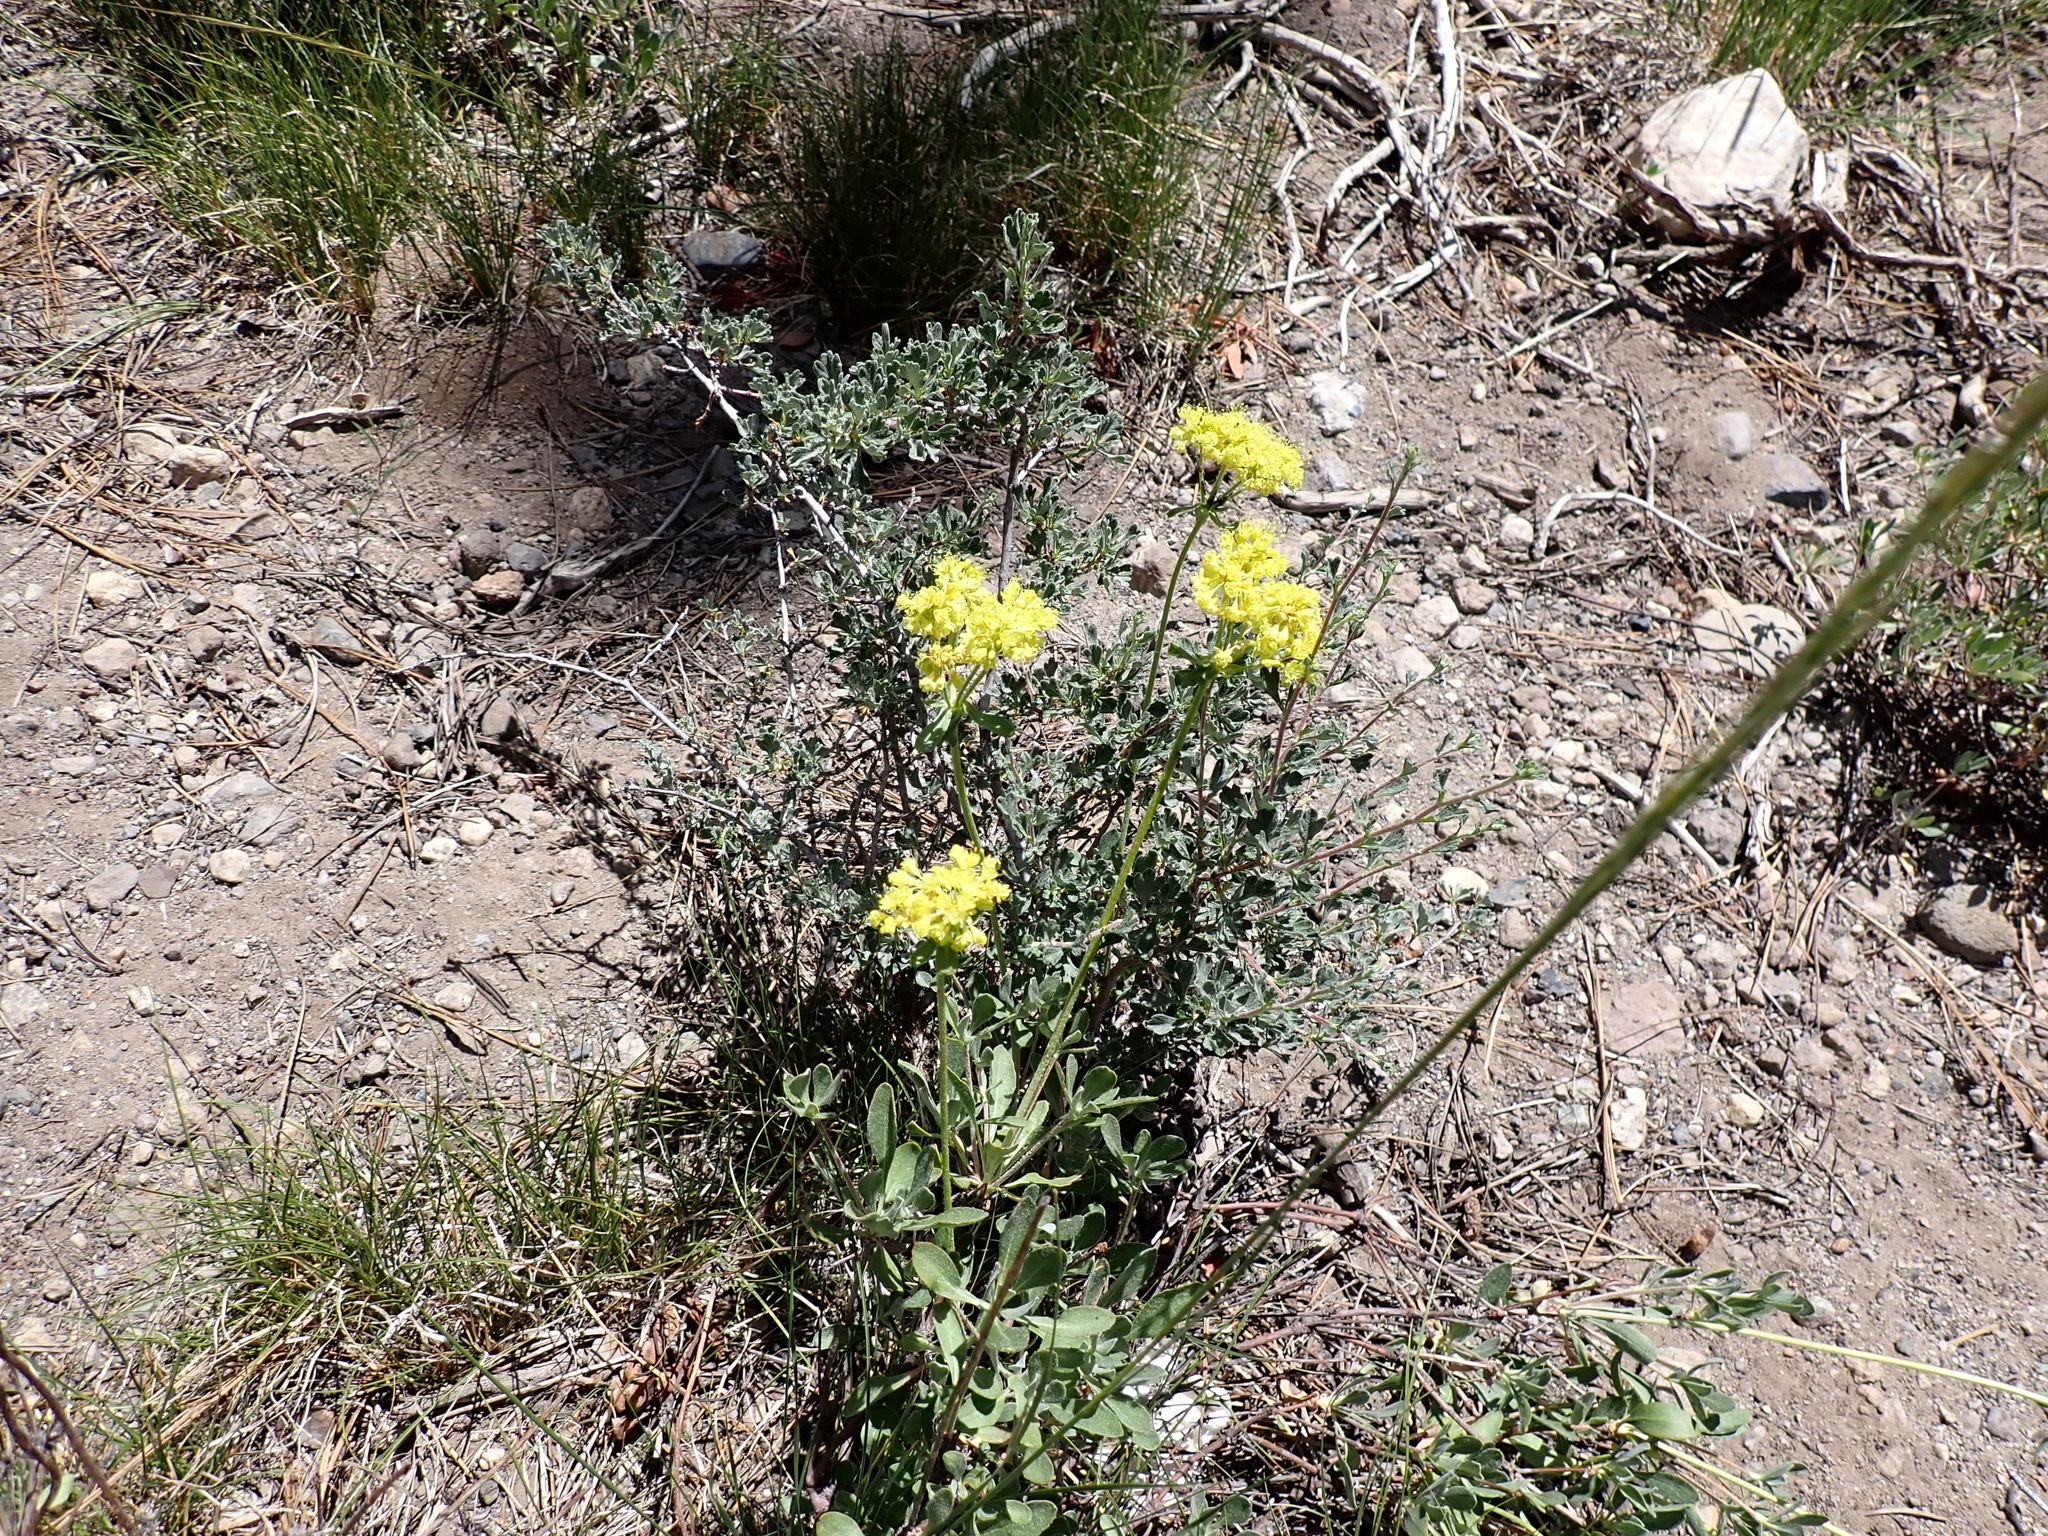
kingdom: Plantae
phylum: Tracheophyta
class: Magnoliopsida
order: Caryophyllales
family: Polygonaceae
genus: Eriogonum
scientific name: Eriogonum umbellatum
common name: Sulfur-buckwheat
